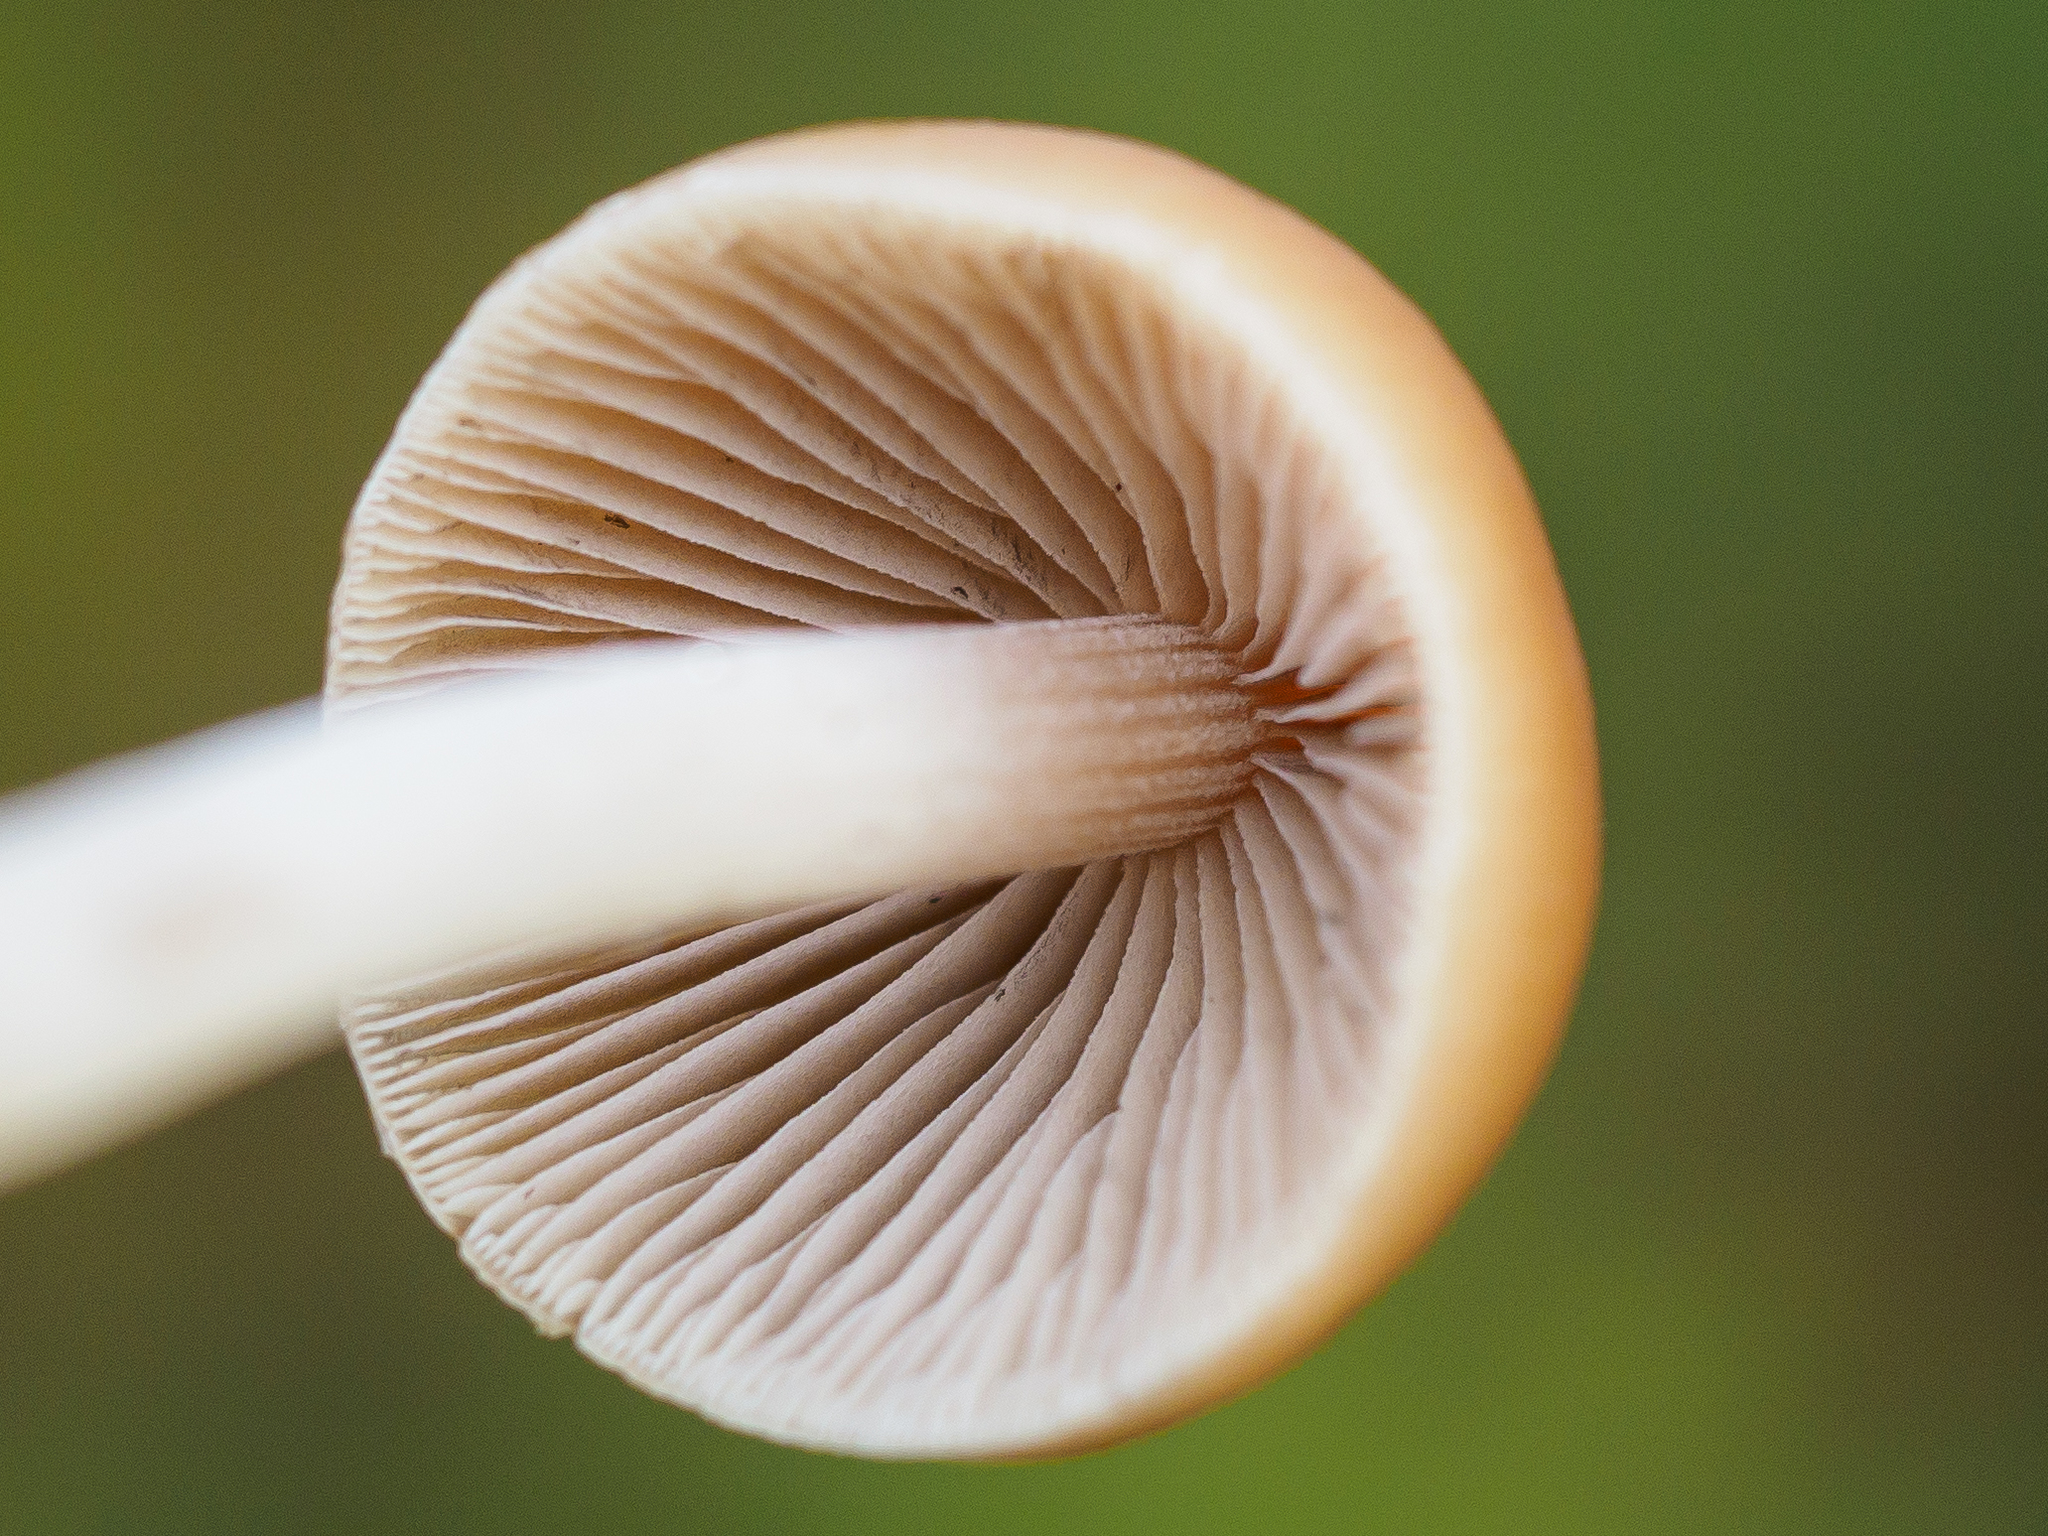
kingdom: Fungi
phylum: Basidiomycota
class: Agaricomycetes
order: Agaricales
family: Psathyrellaceae
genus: Britzelmayria
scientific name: Britzelmayria multipedata
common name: Clustered brittlestem
